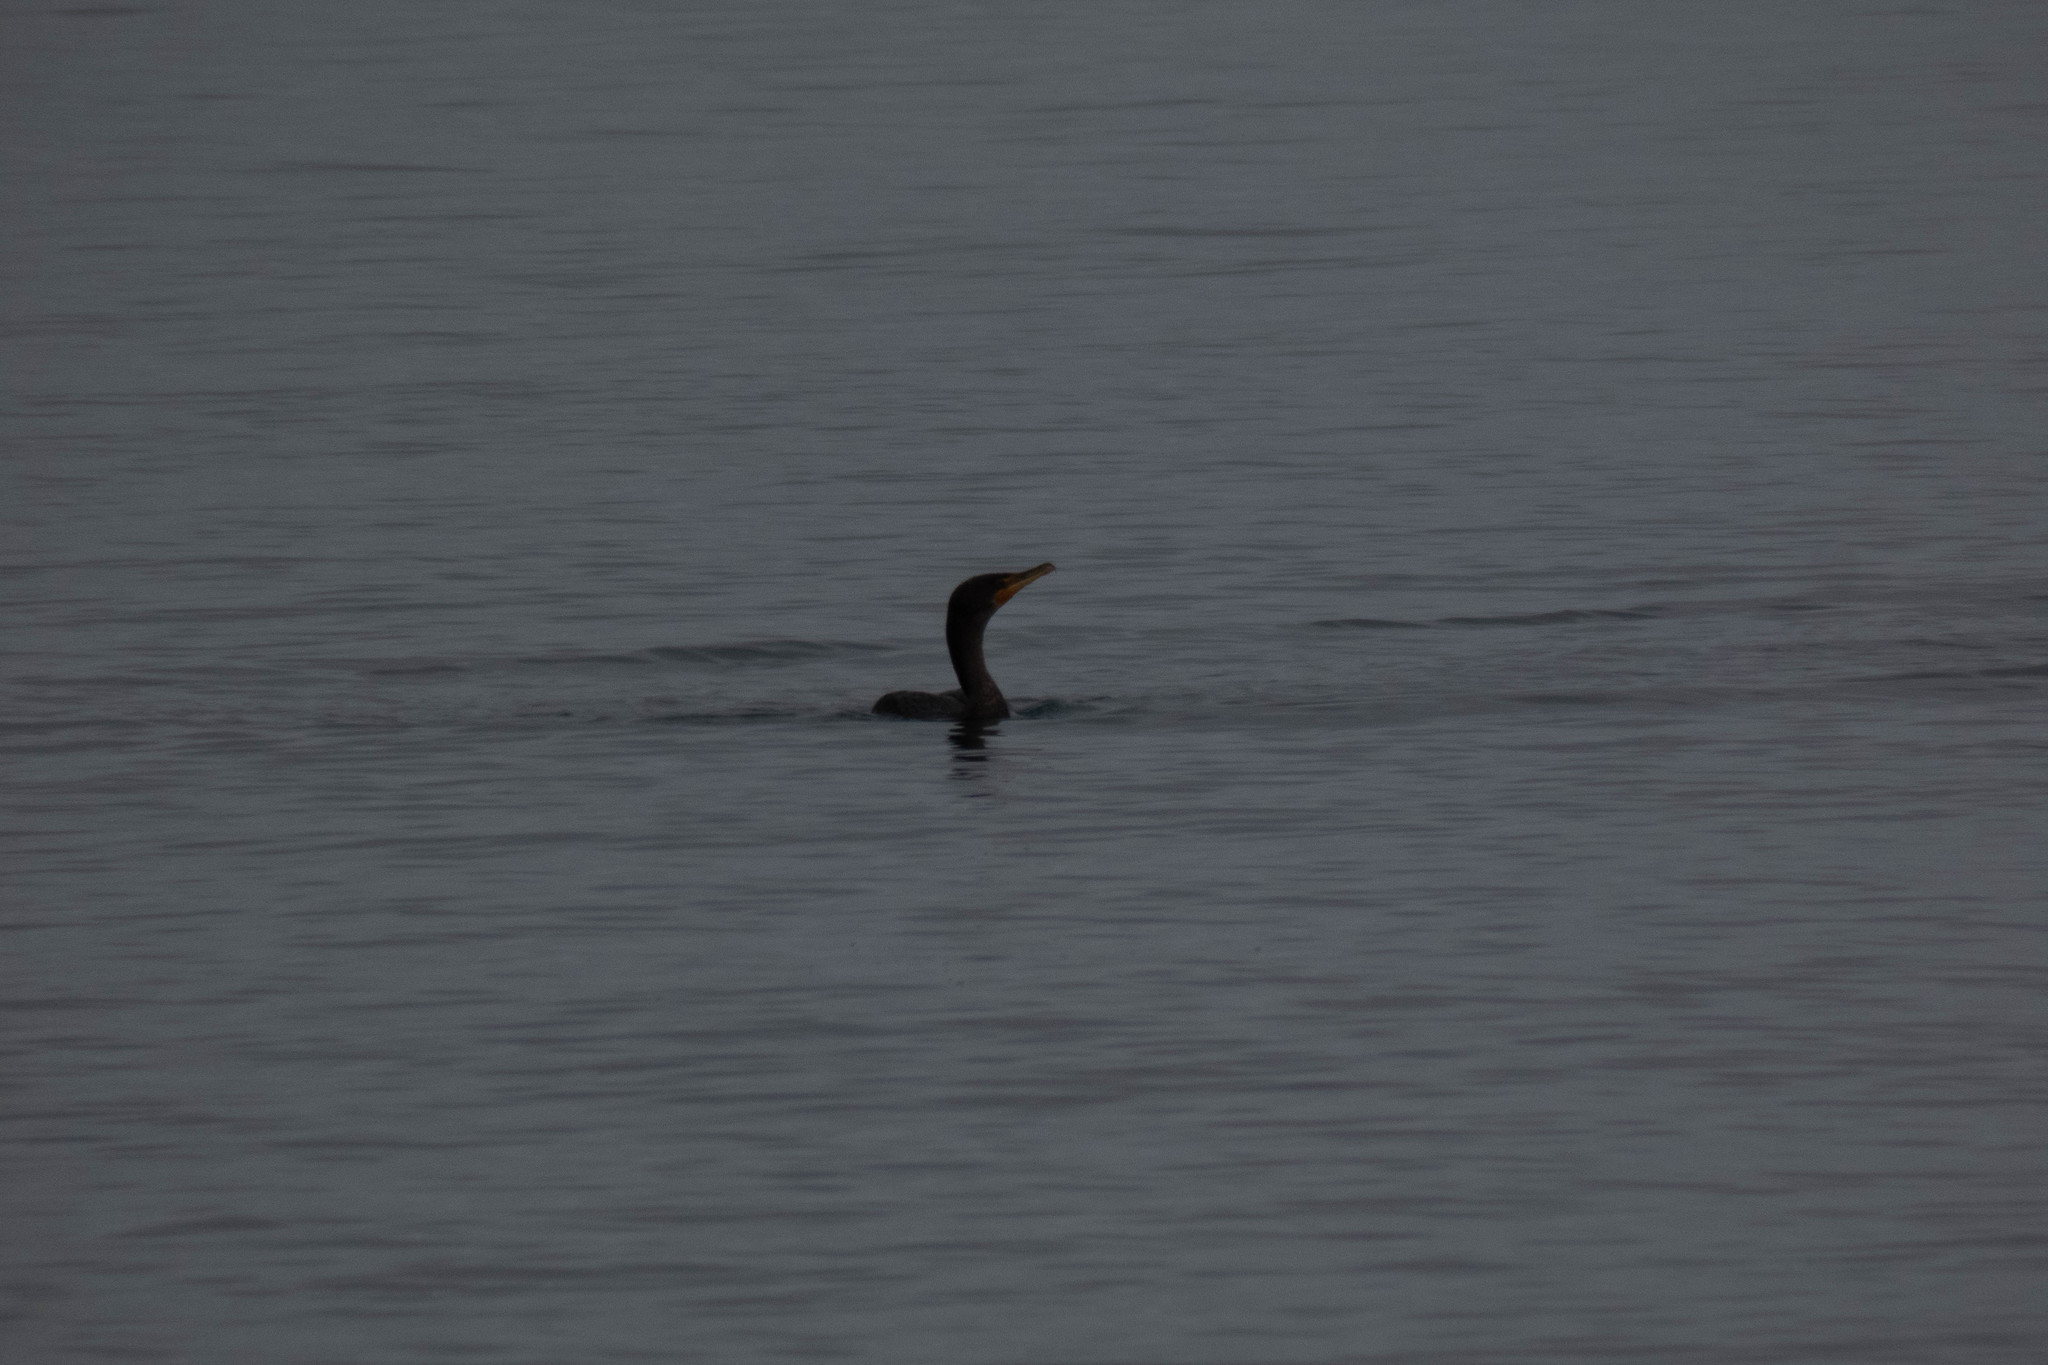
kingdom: Animalia
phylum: Chordata
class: Aves
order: Suliformes
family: Phalacrocoracidae
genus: Phalacrocorax
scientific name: Phalacrocorax auritus
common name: Double-crested cormorant
